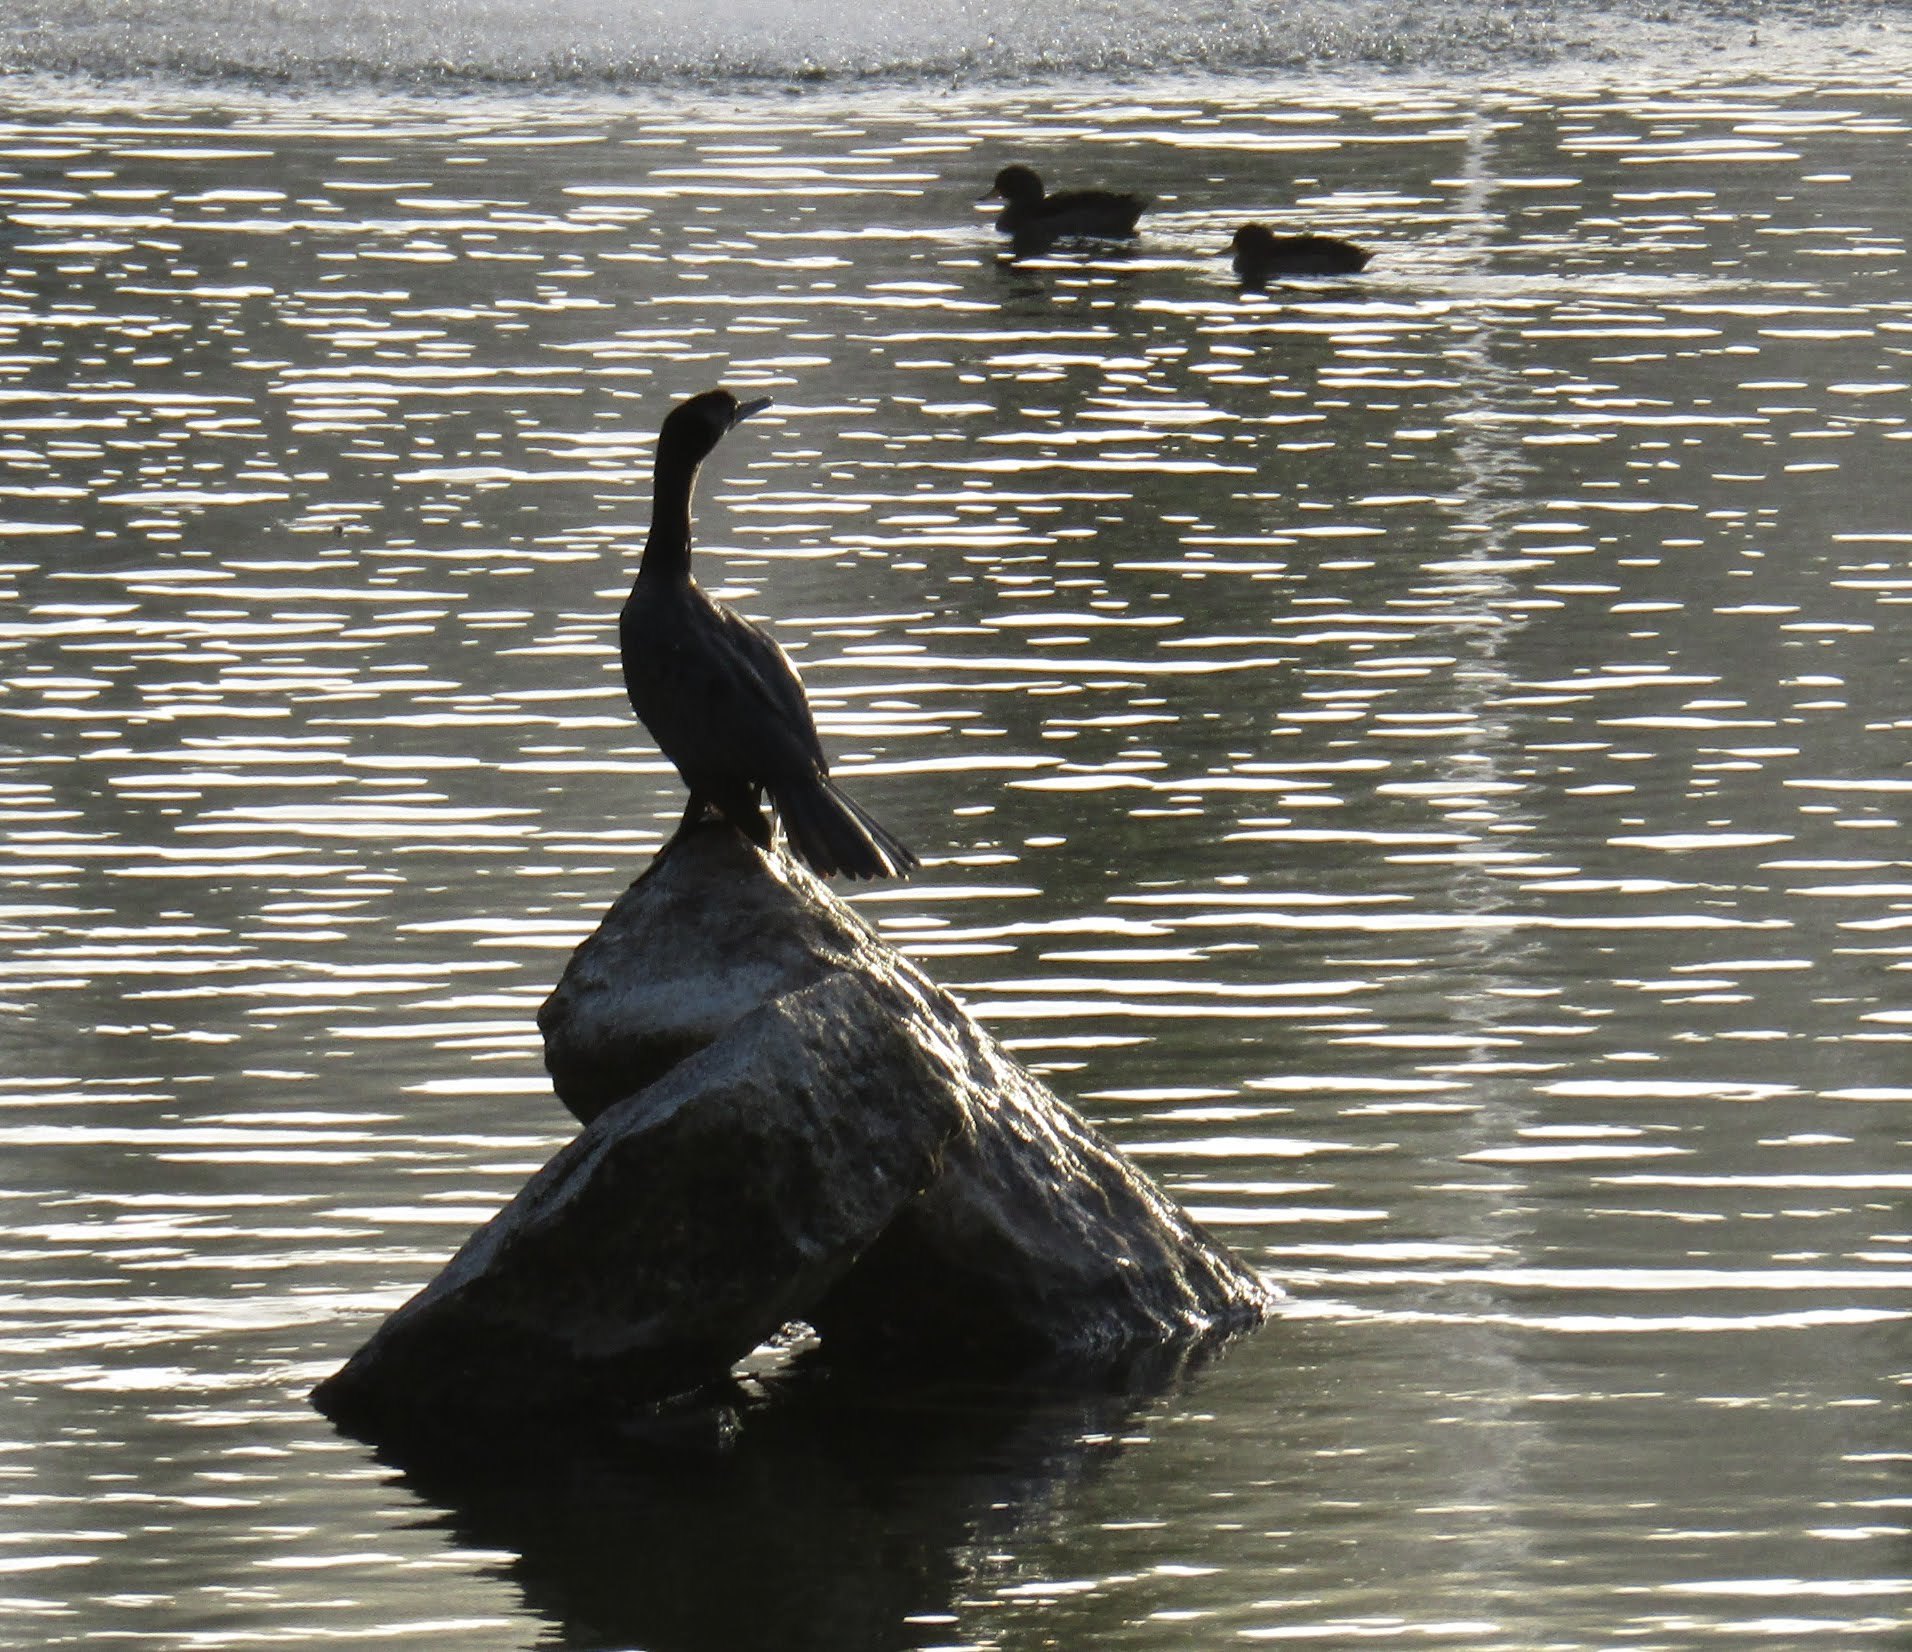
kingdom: Animalia
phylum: Chordata
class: Aves
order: Suliformes
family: Phalacrocoracidae
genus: Phalacrocorax
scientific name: Phalacrocorax brasilianus
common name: Neotropic cormorant
